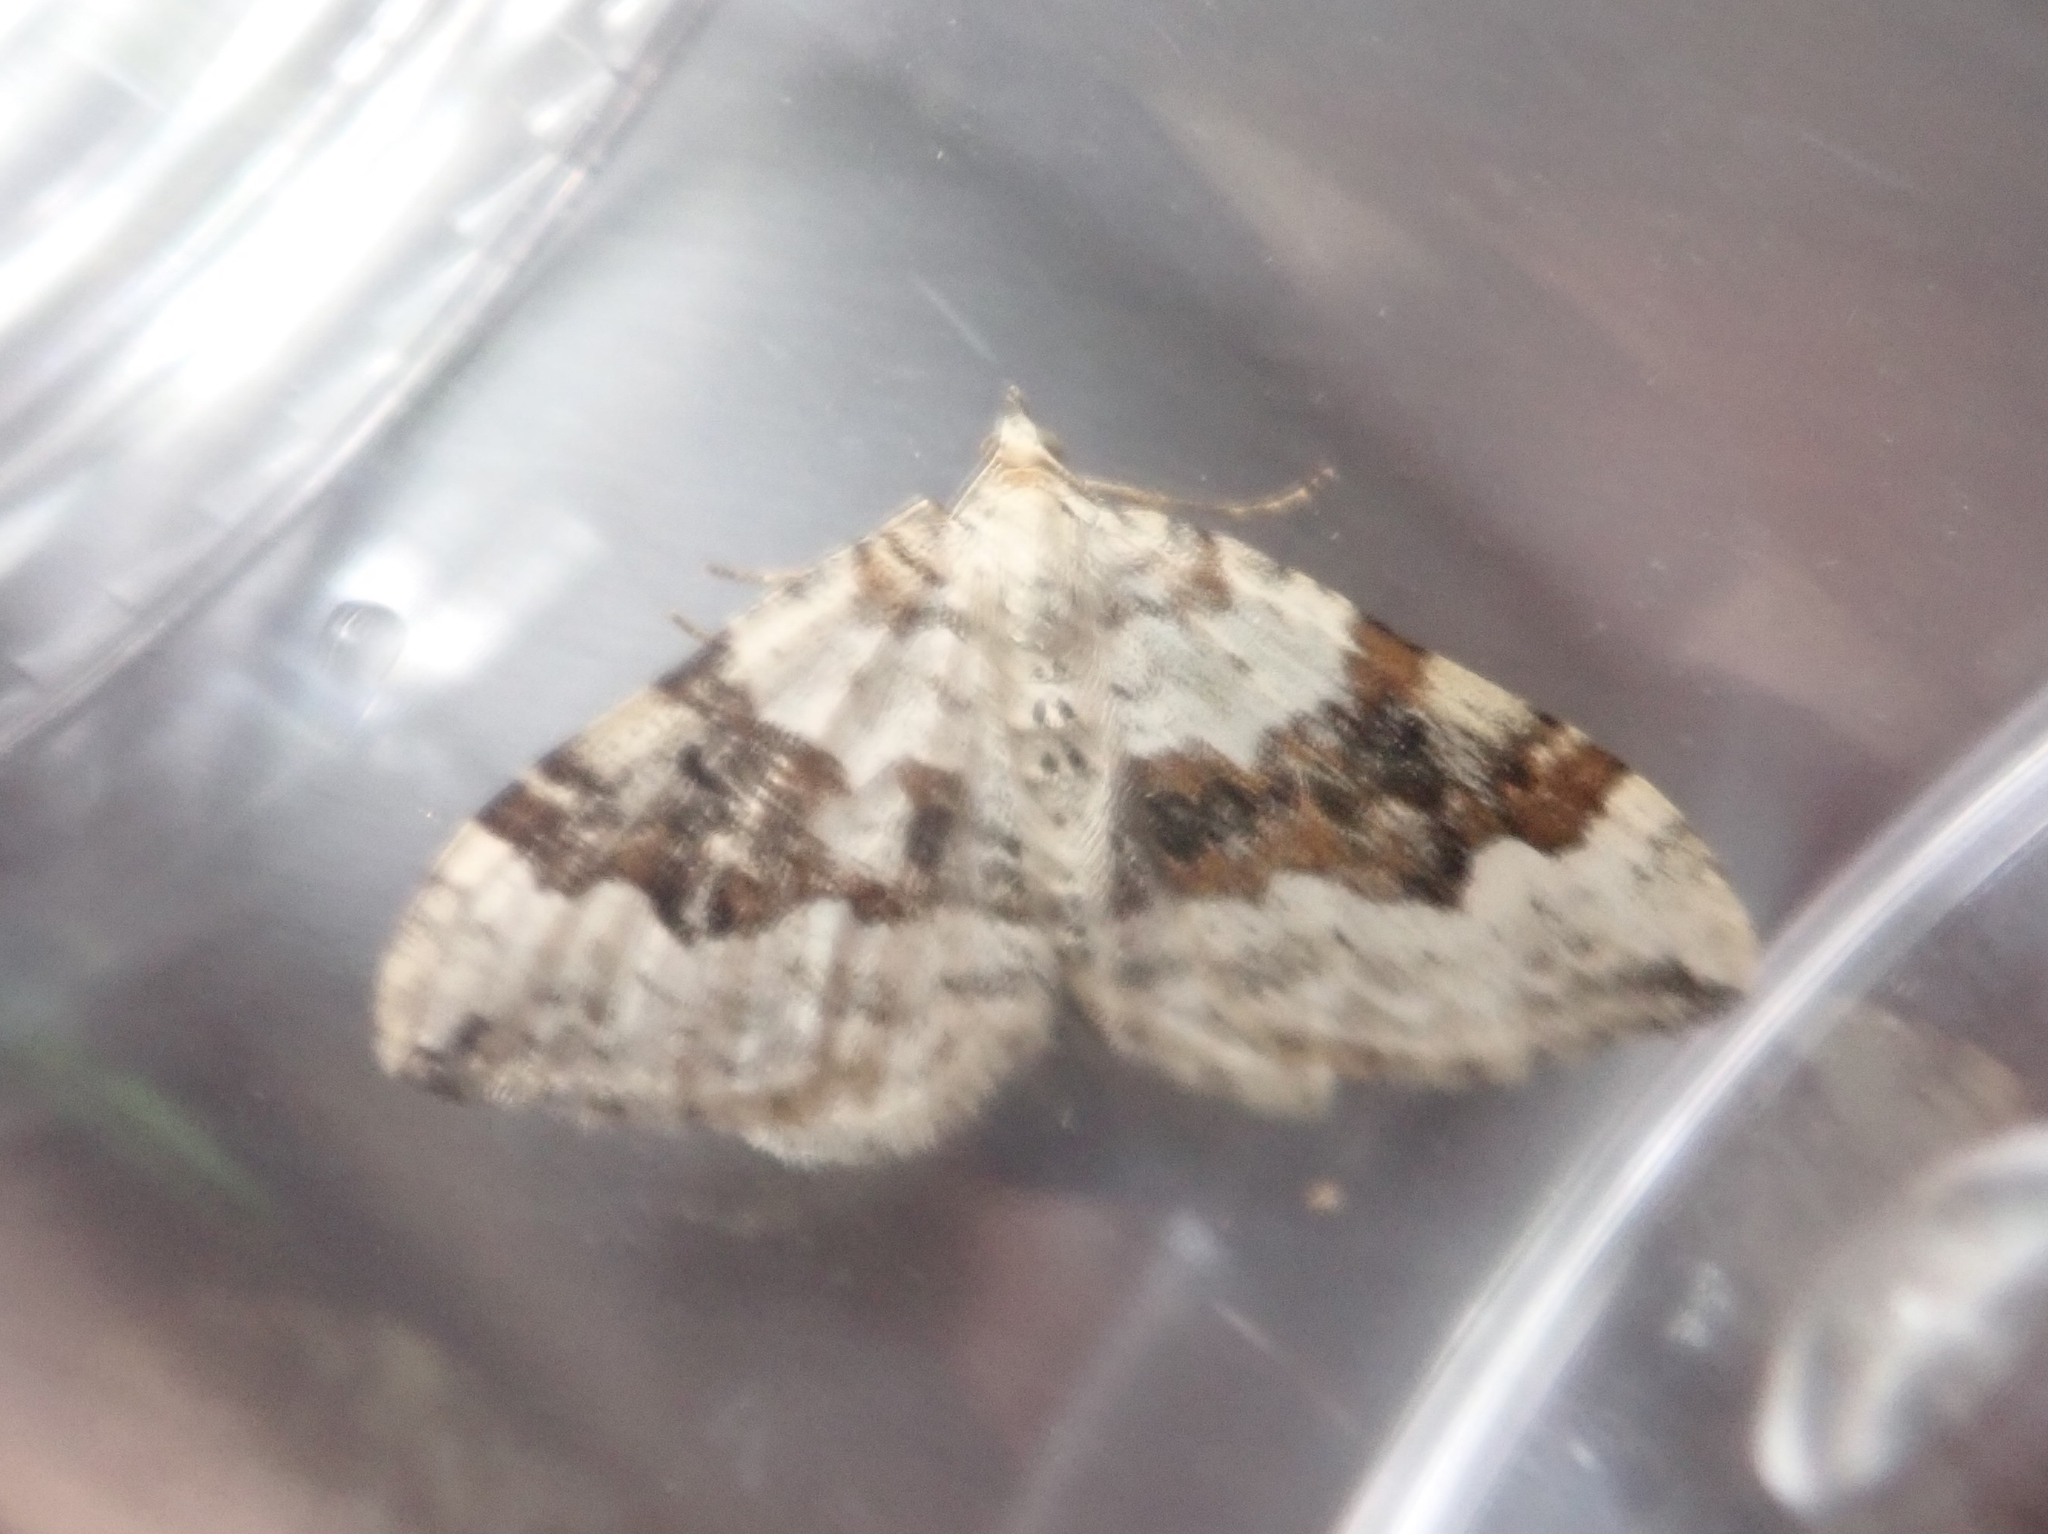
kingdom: Animalia
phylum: Arthropoda
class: Insecta
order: Lepidoptera
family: Geometridae
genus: Xanthorhoe
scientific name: Xanthorhoe montanata
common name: Silver-ground carpet
